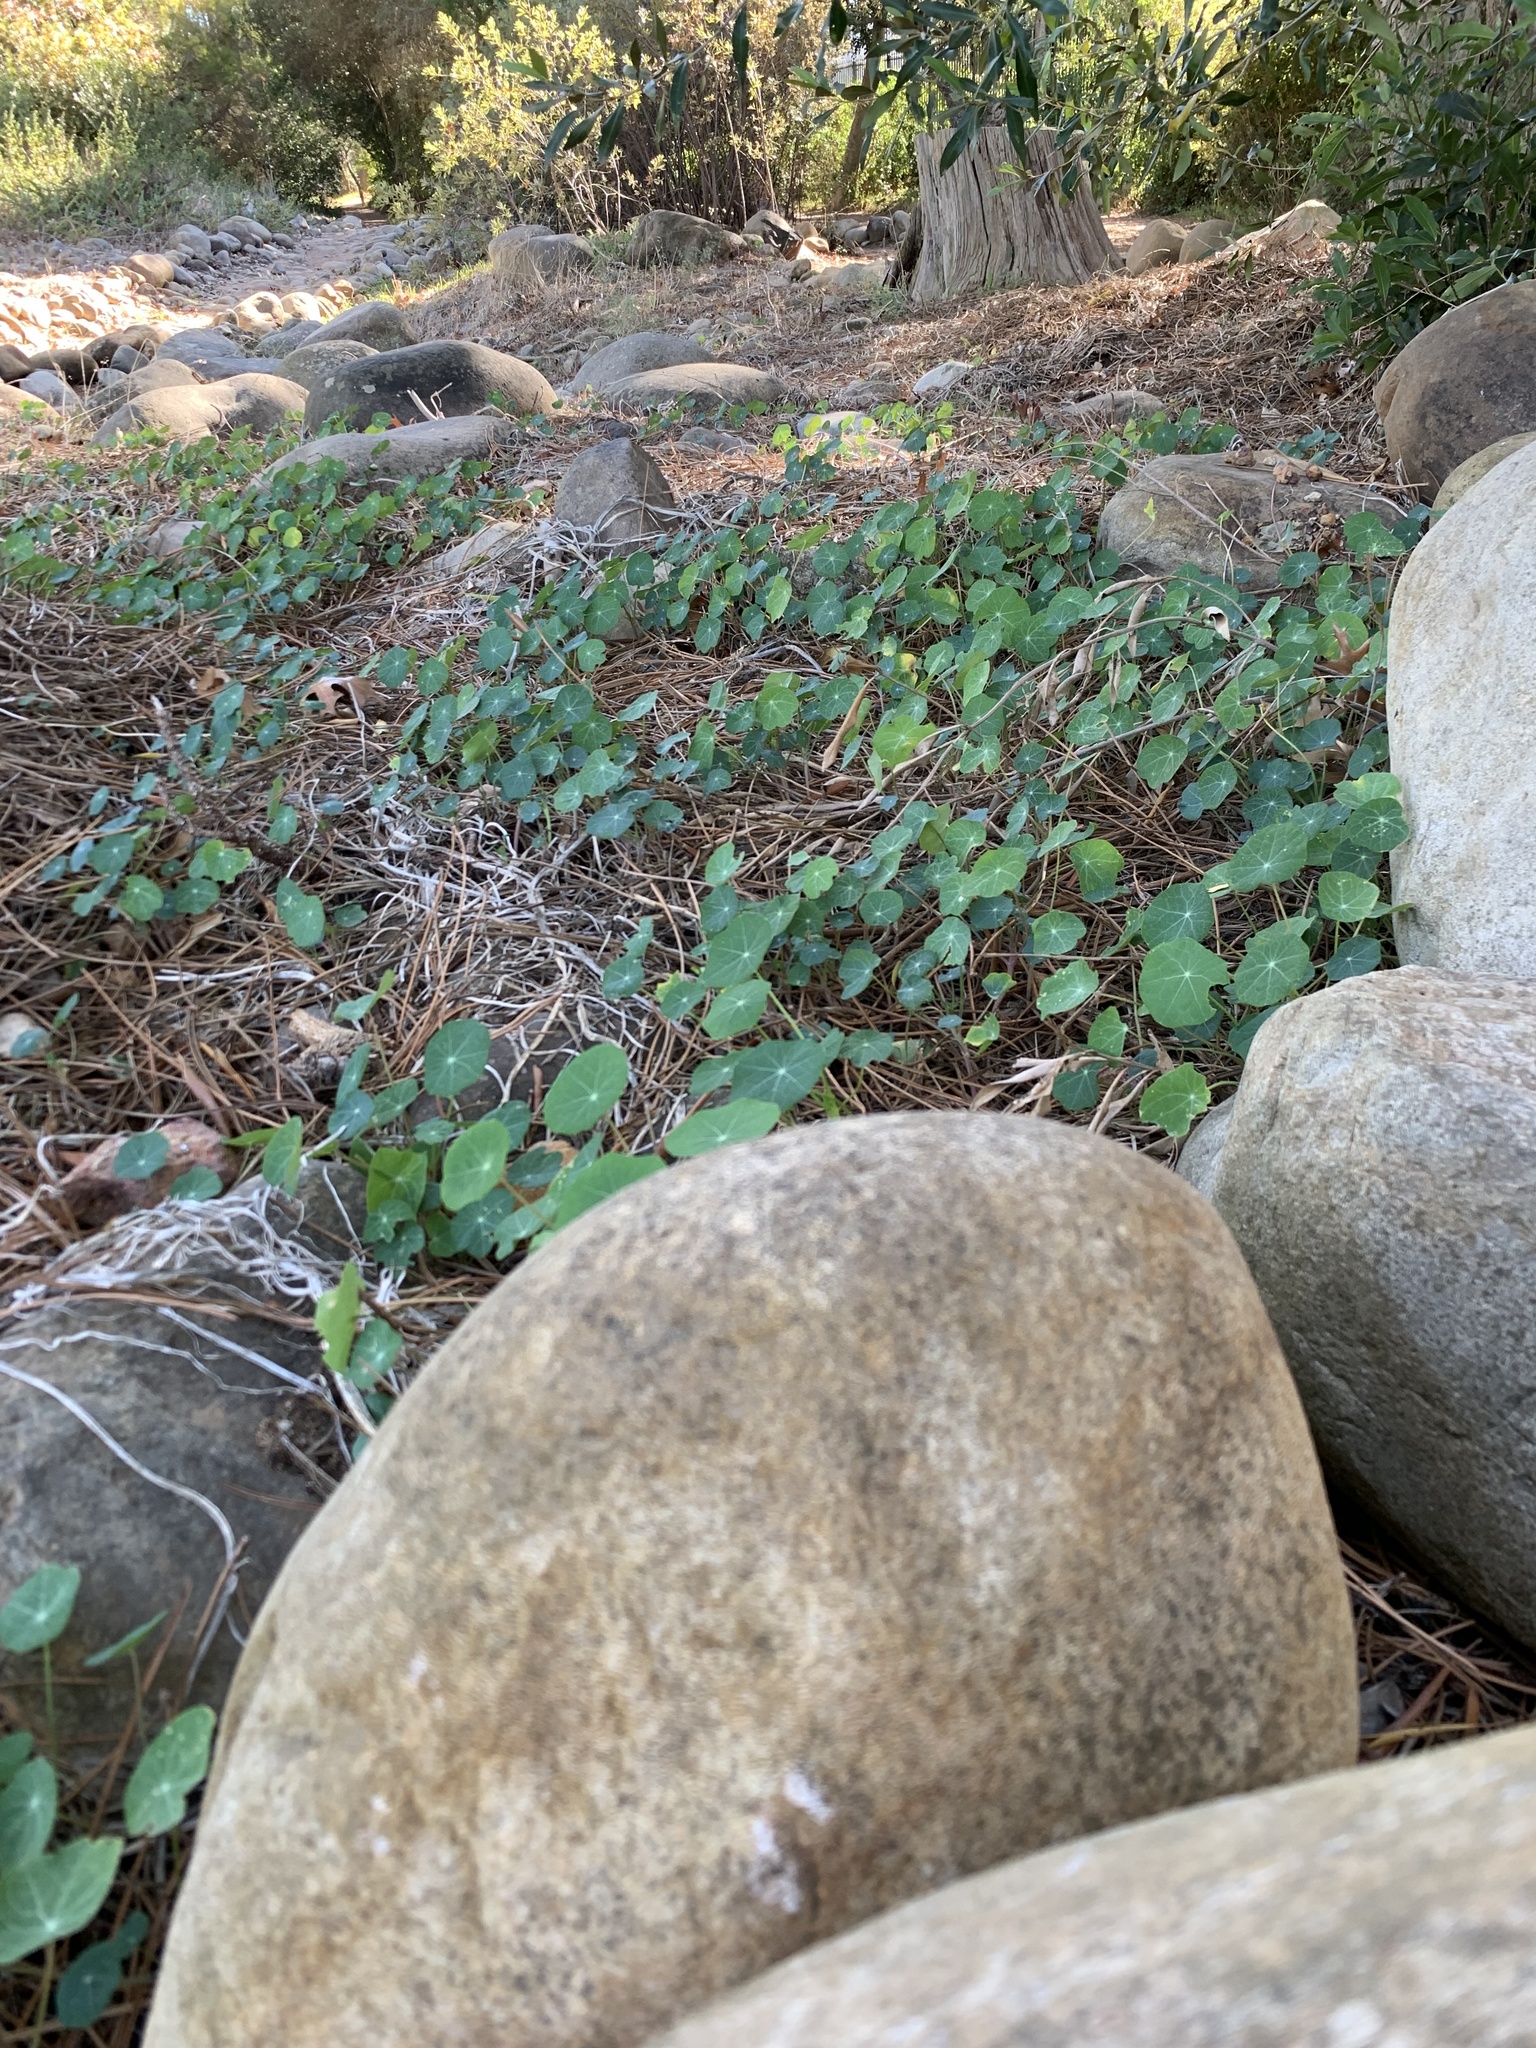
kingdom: Plantae
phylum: Tracheophyta
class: Magnoliopsida
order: Brassicales
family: Tropaeolaceae
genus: Tropaeolum
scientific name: Tropaeolum majus
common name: Nasturtium
